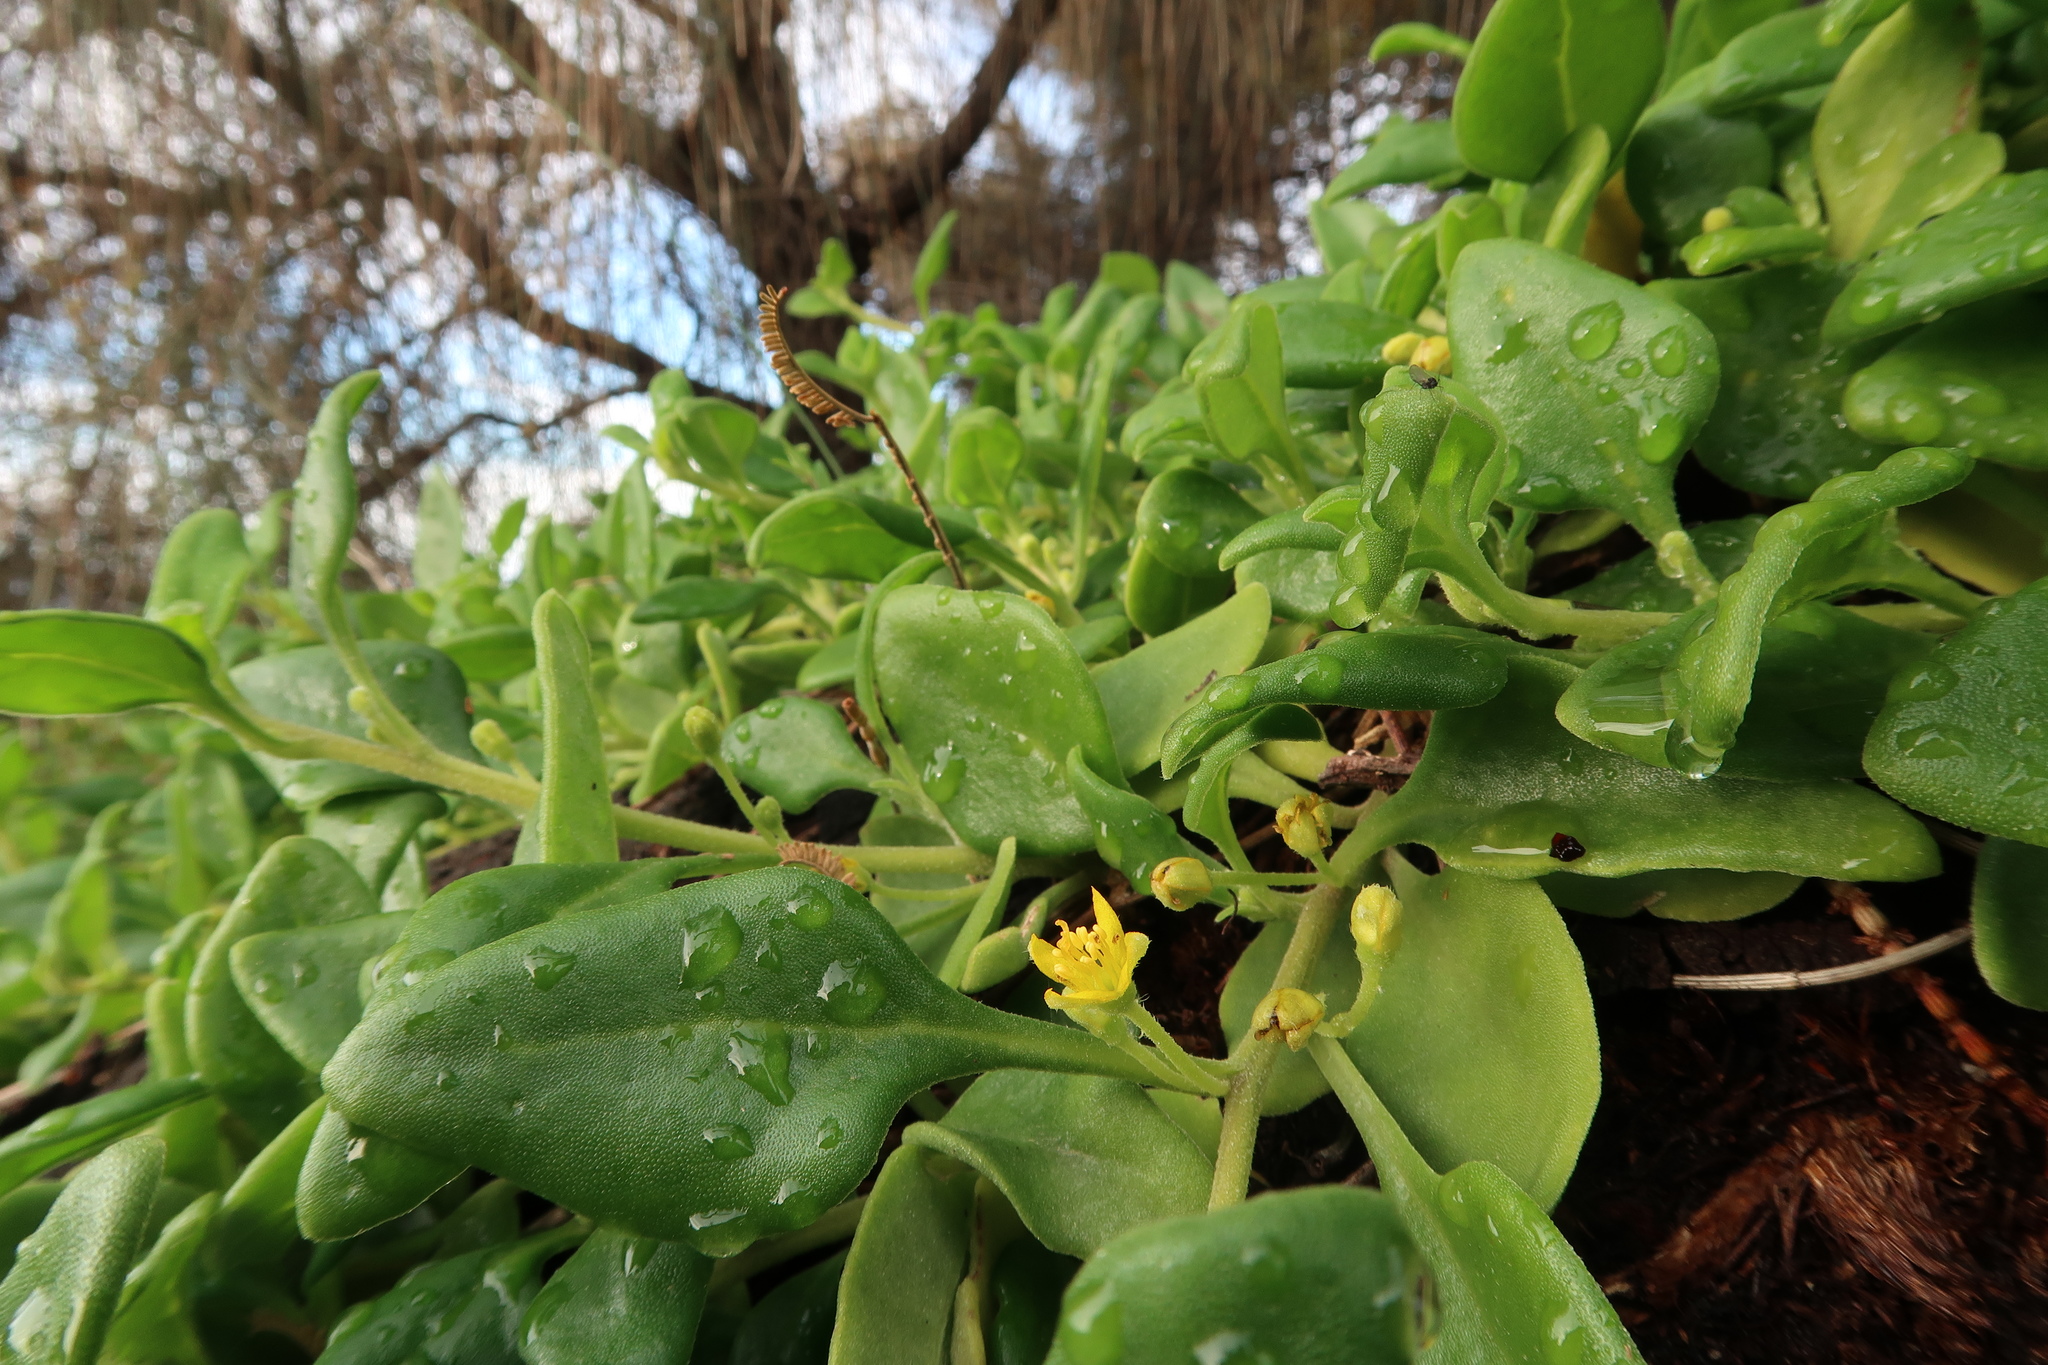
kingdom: Plantae
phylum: Tracheophyta
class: Magnoliopsida
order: Caryophyllales
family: Aizoaceae
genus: Tetragonia
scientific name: Tetragonia implexicoma
